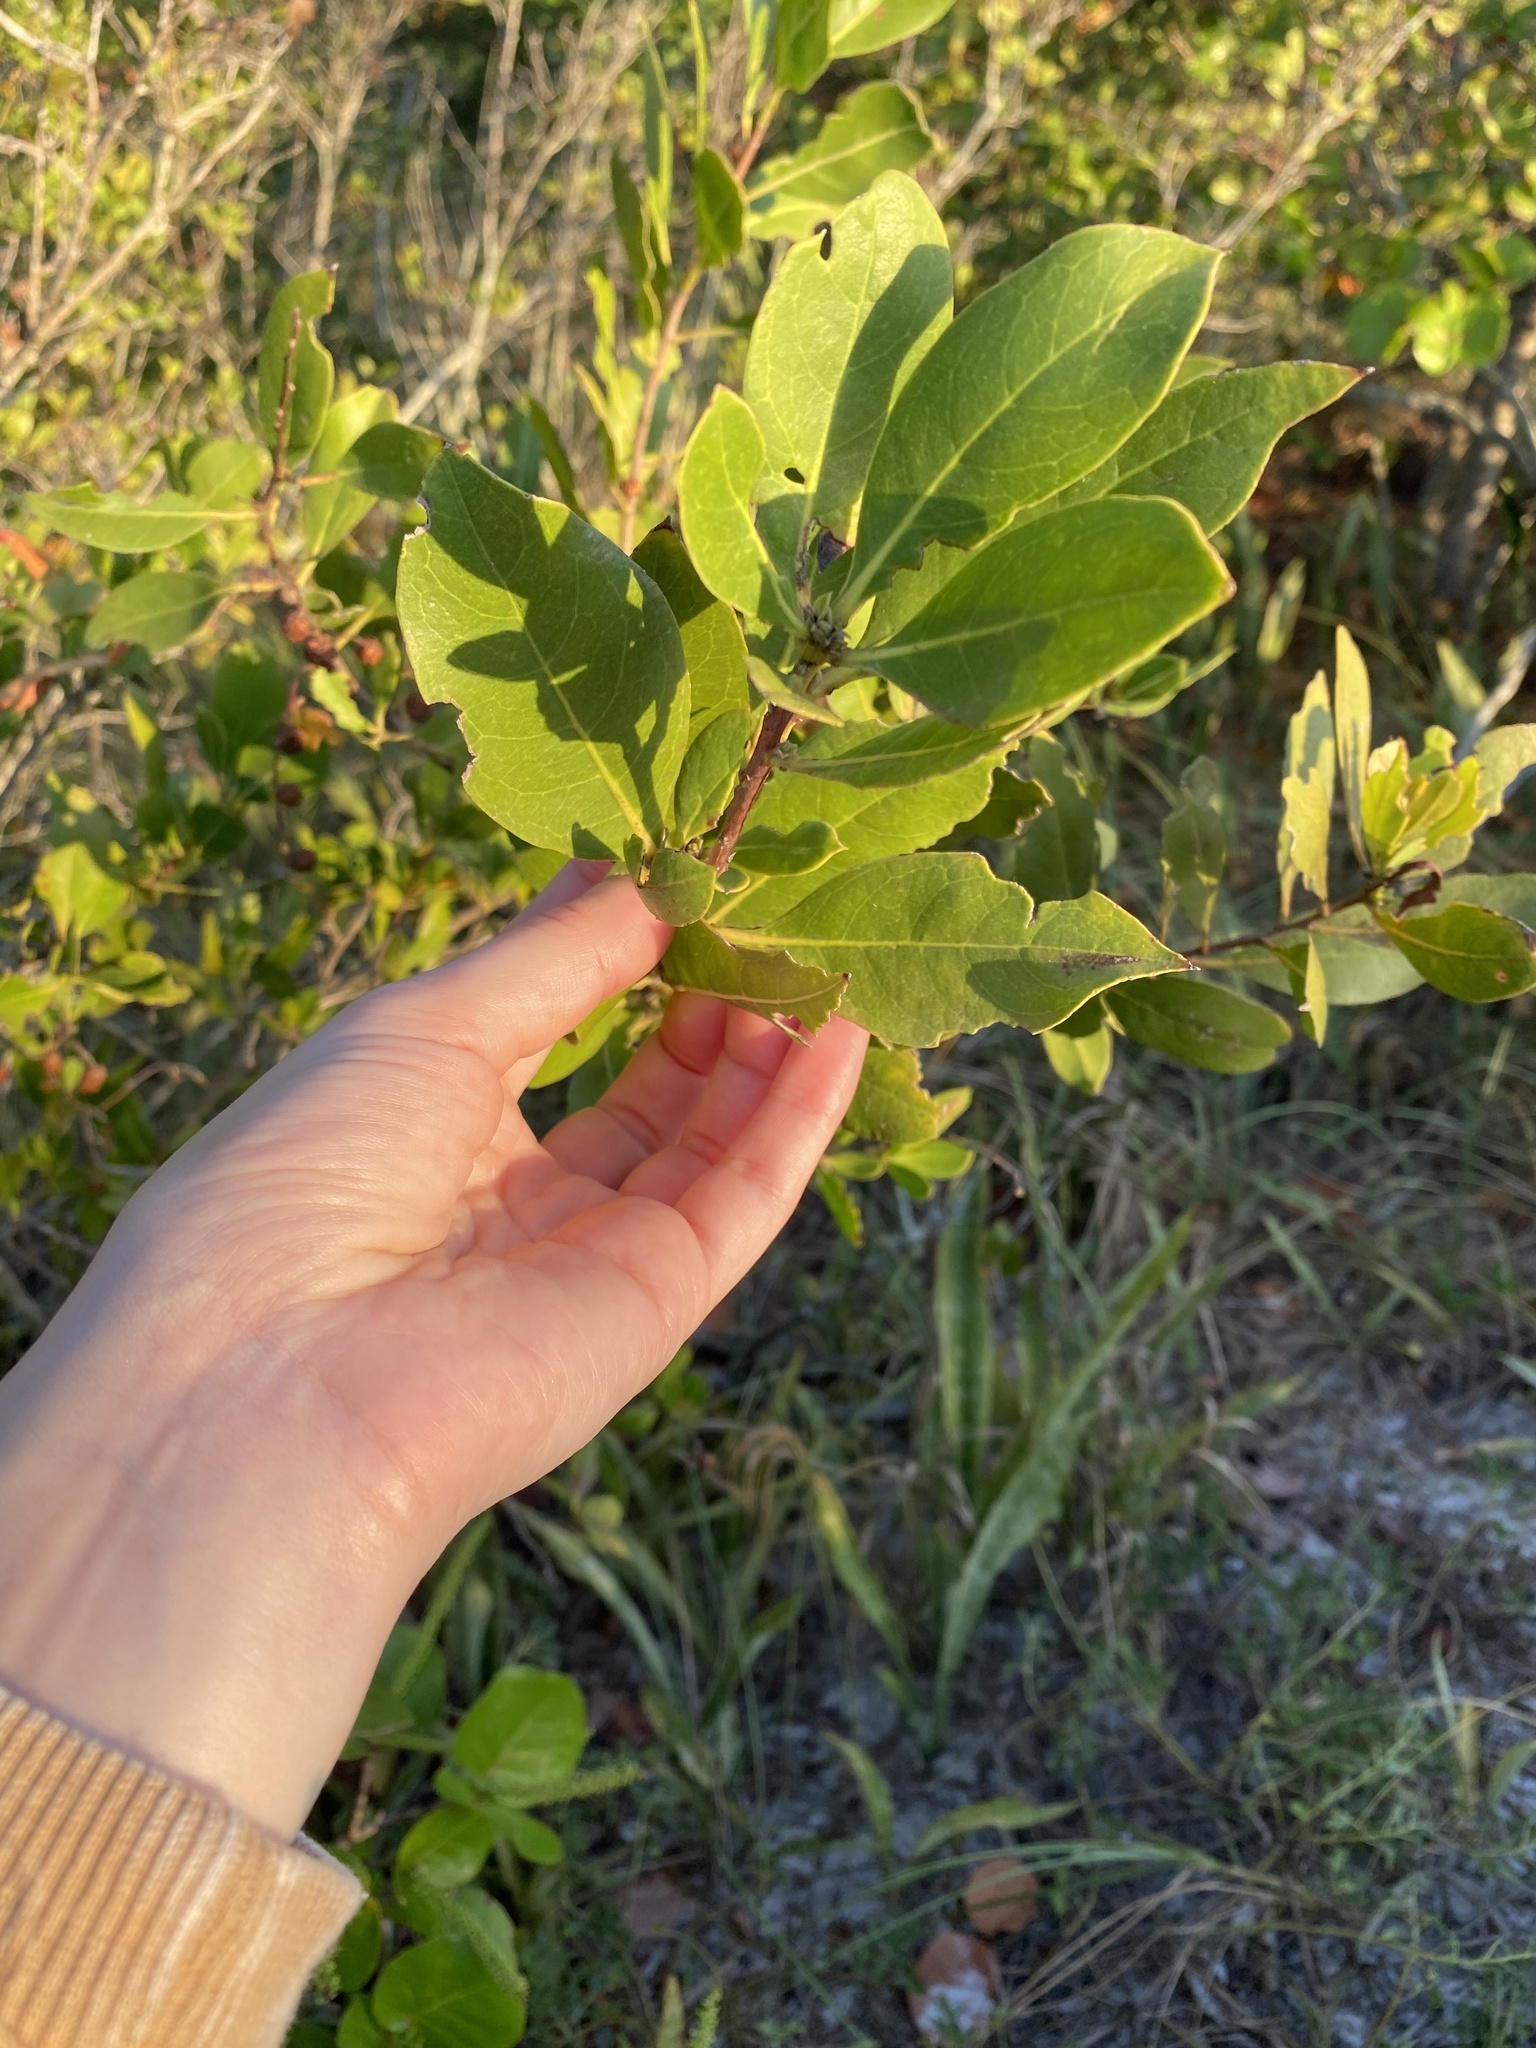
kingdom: Plantae
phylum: Tracheophyta
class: Magnoliopsida
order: Myrtales
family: Combretaceae
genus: Conocarpus
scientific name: Conocarpus erectus
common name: Button mangrove
